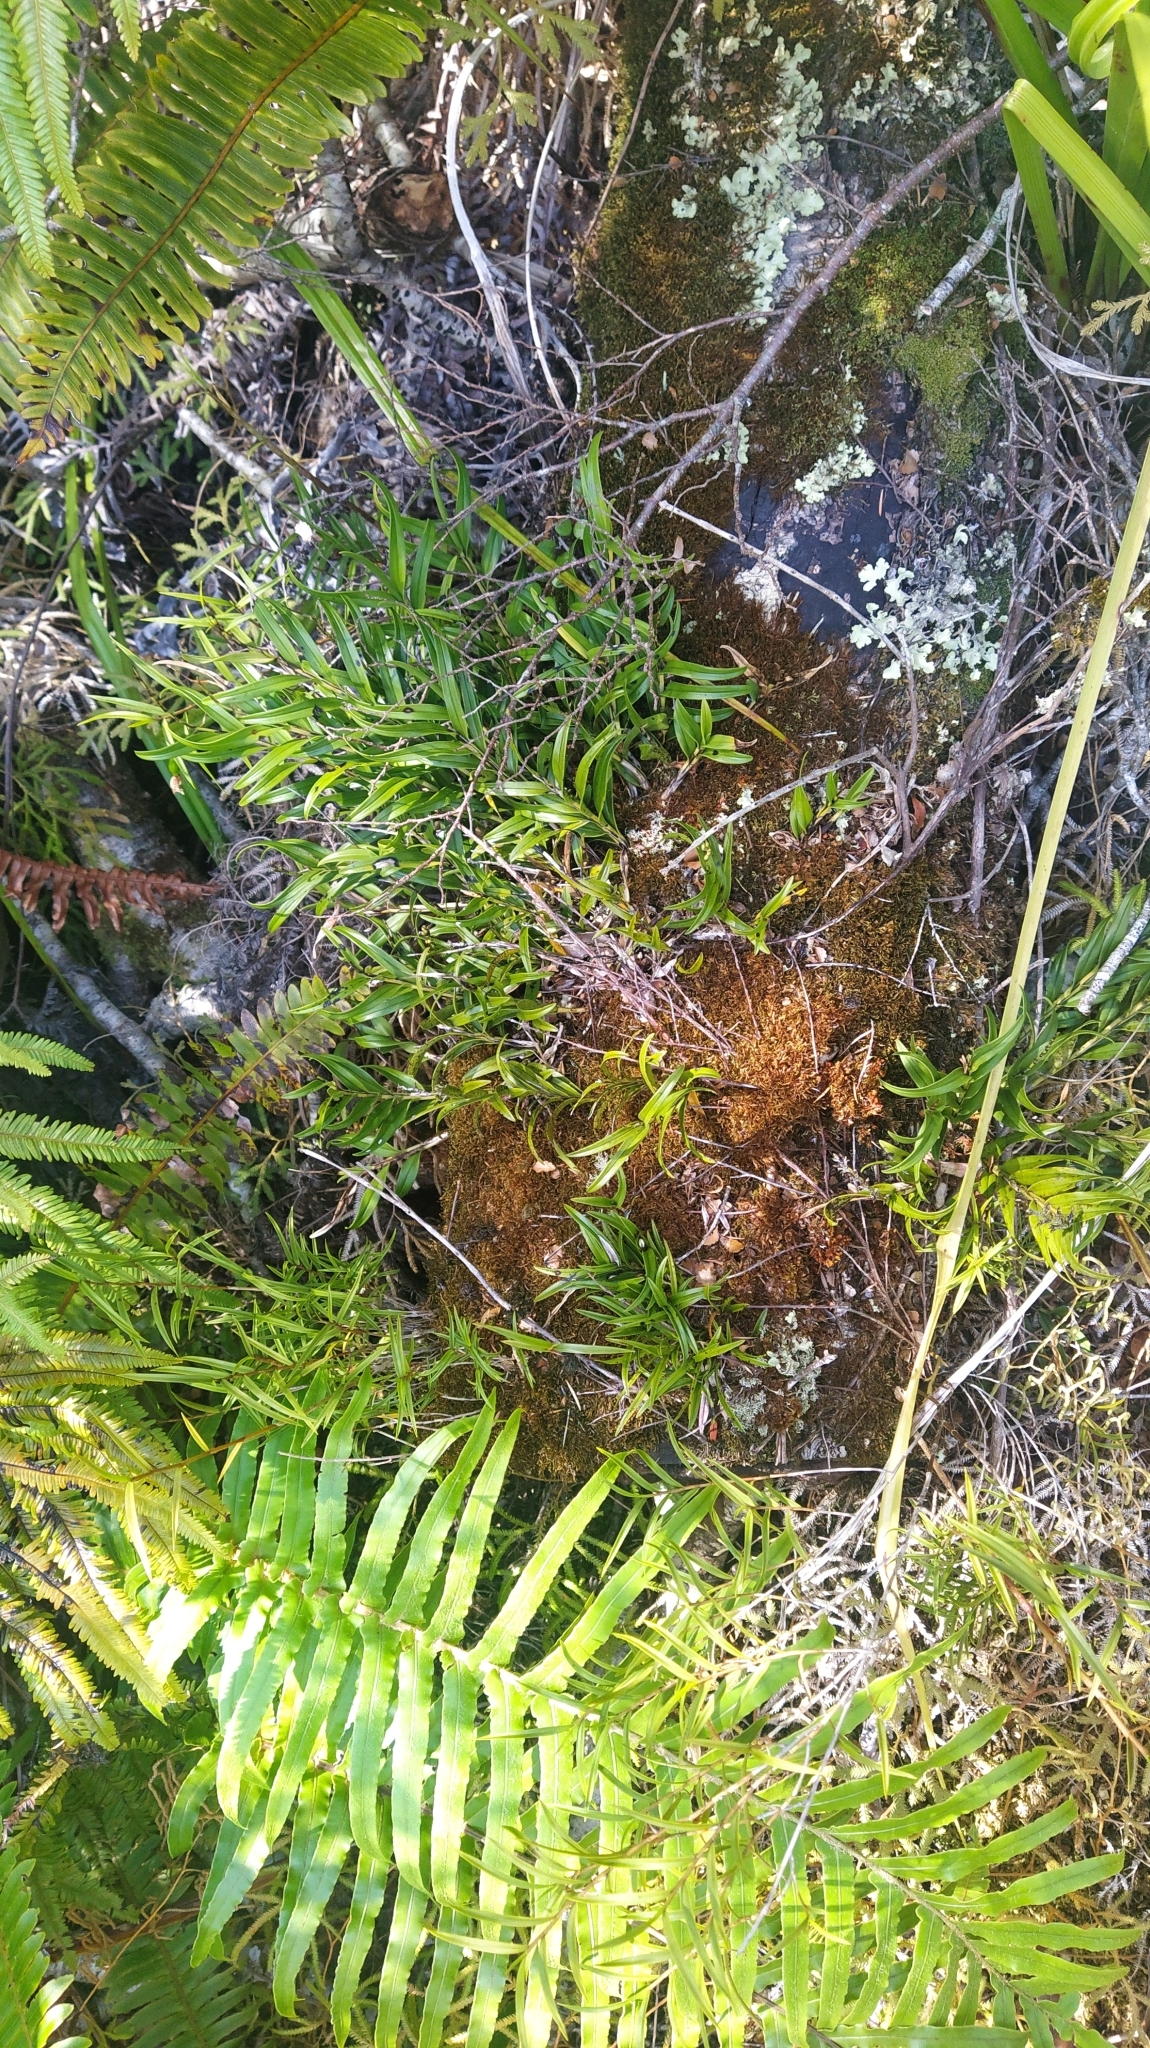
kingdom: Plantae
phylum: Tracheophyta
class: Liliopsida
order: Asparagales
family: Orchidaceae
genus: Earina
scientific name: Earina autumnalis
